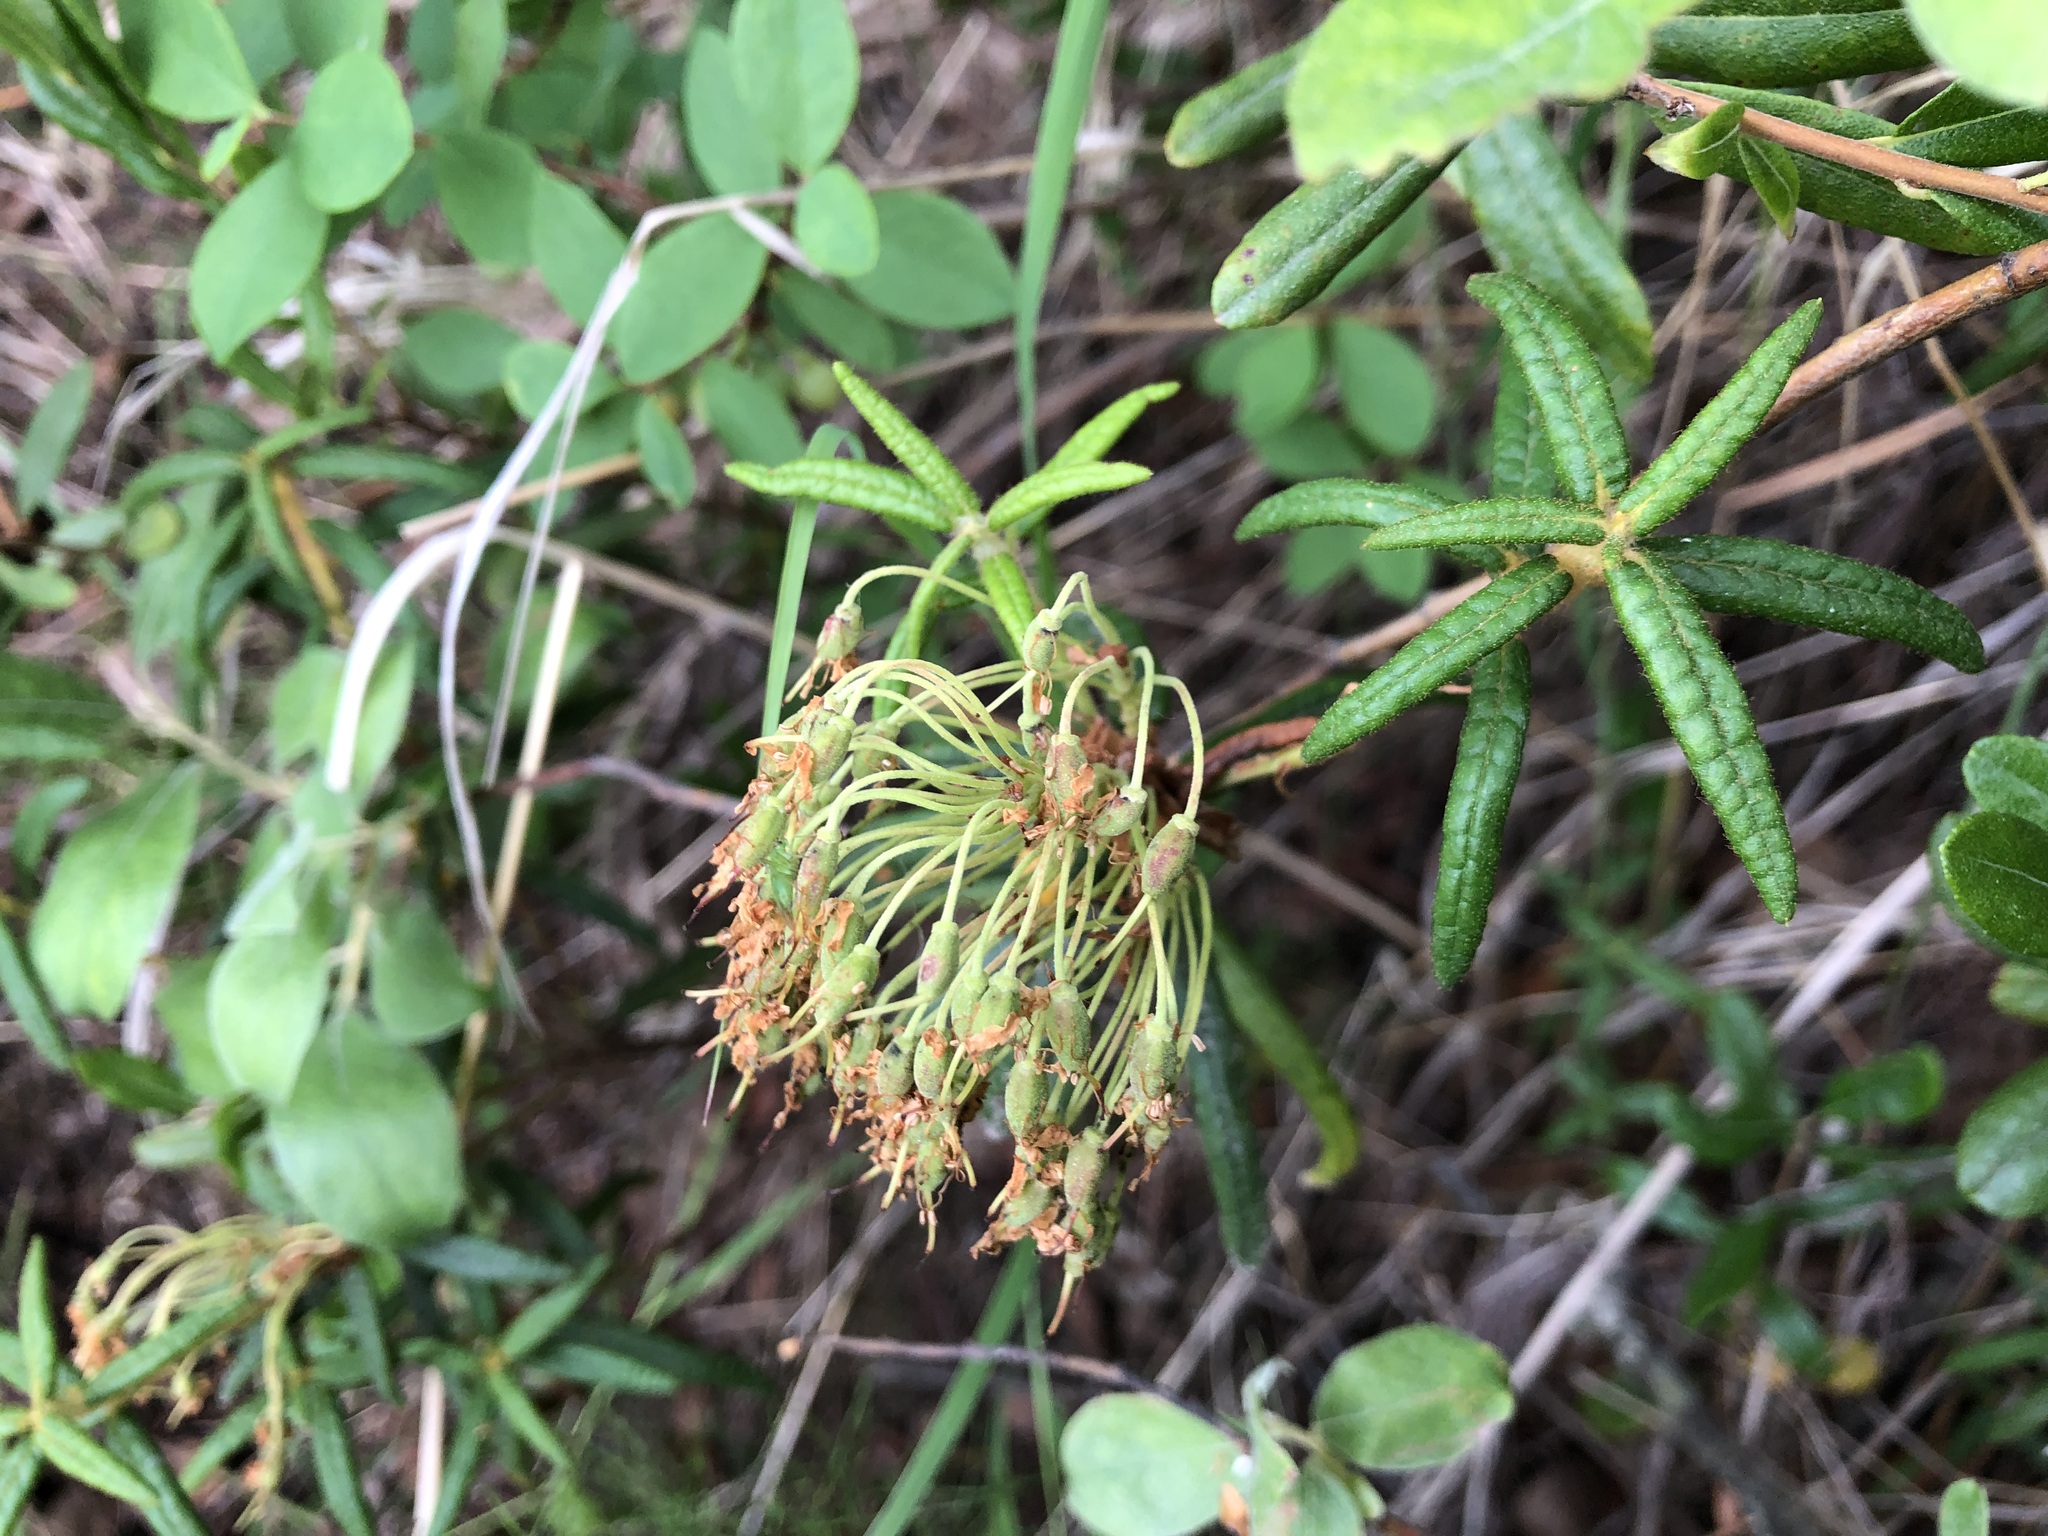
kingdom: Plantae
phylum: Tracheophyta
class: Magnoliopsida
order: Ericales
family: Ericaceae
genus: Rhododendron
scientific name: Rhododendron groenlandicum
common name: Bog labrador tea
